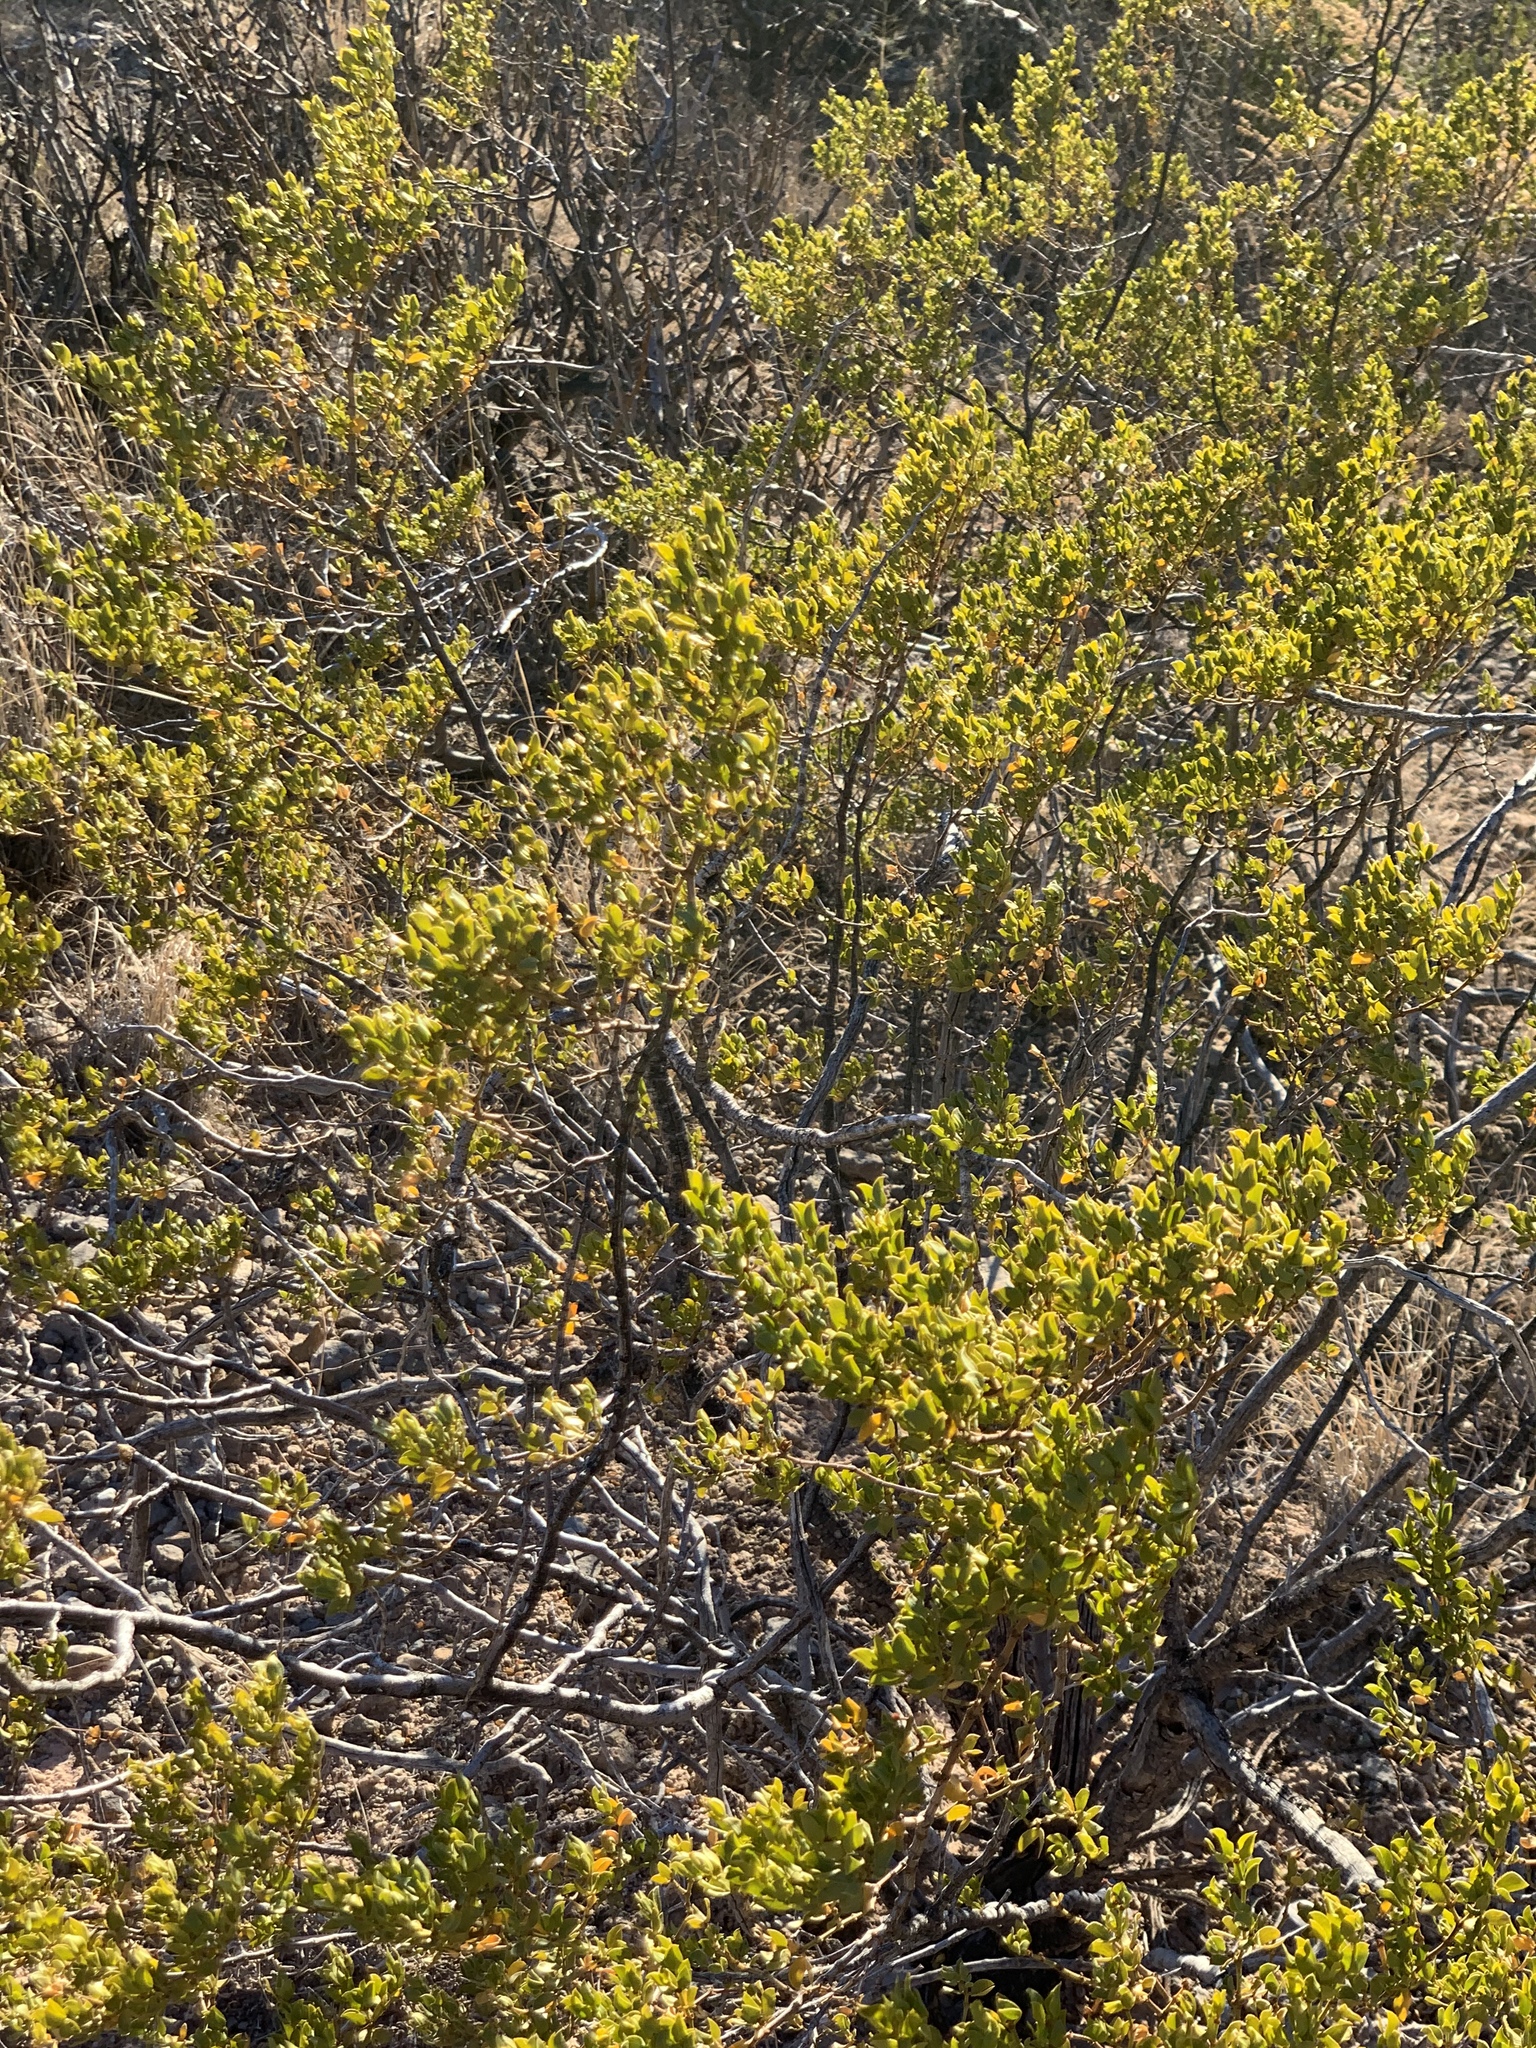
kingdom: Plantae
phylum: Tracheophyta
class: Magnoliopsida
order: Zygophyllales
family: Zygophyllaceae
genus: Larrea
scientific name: Larrea tridentata
